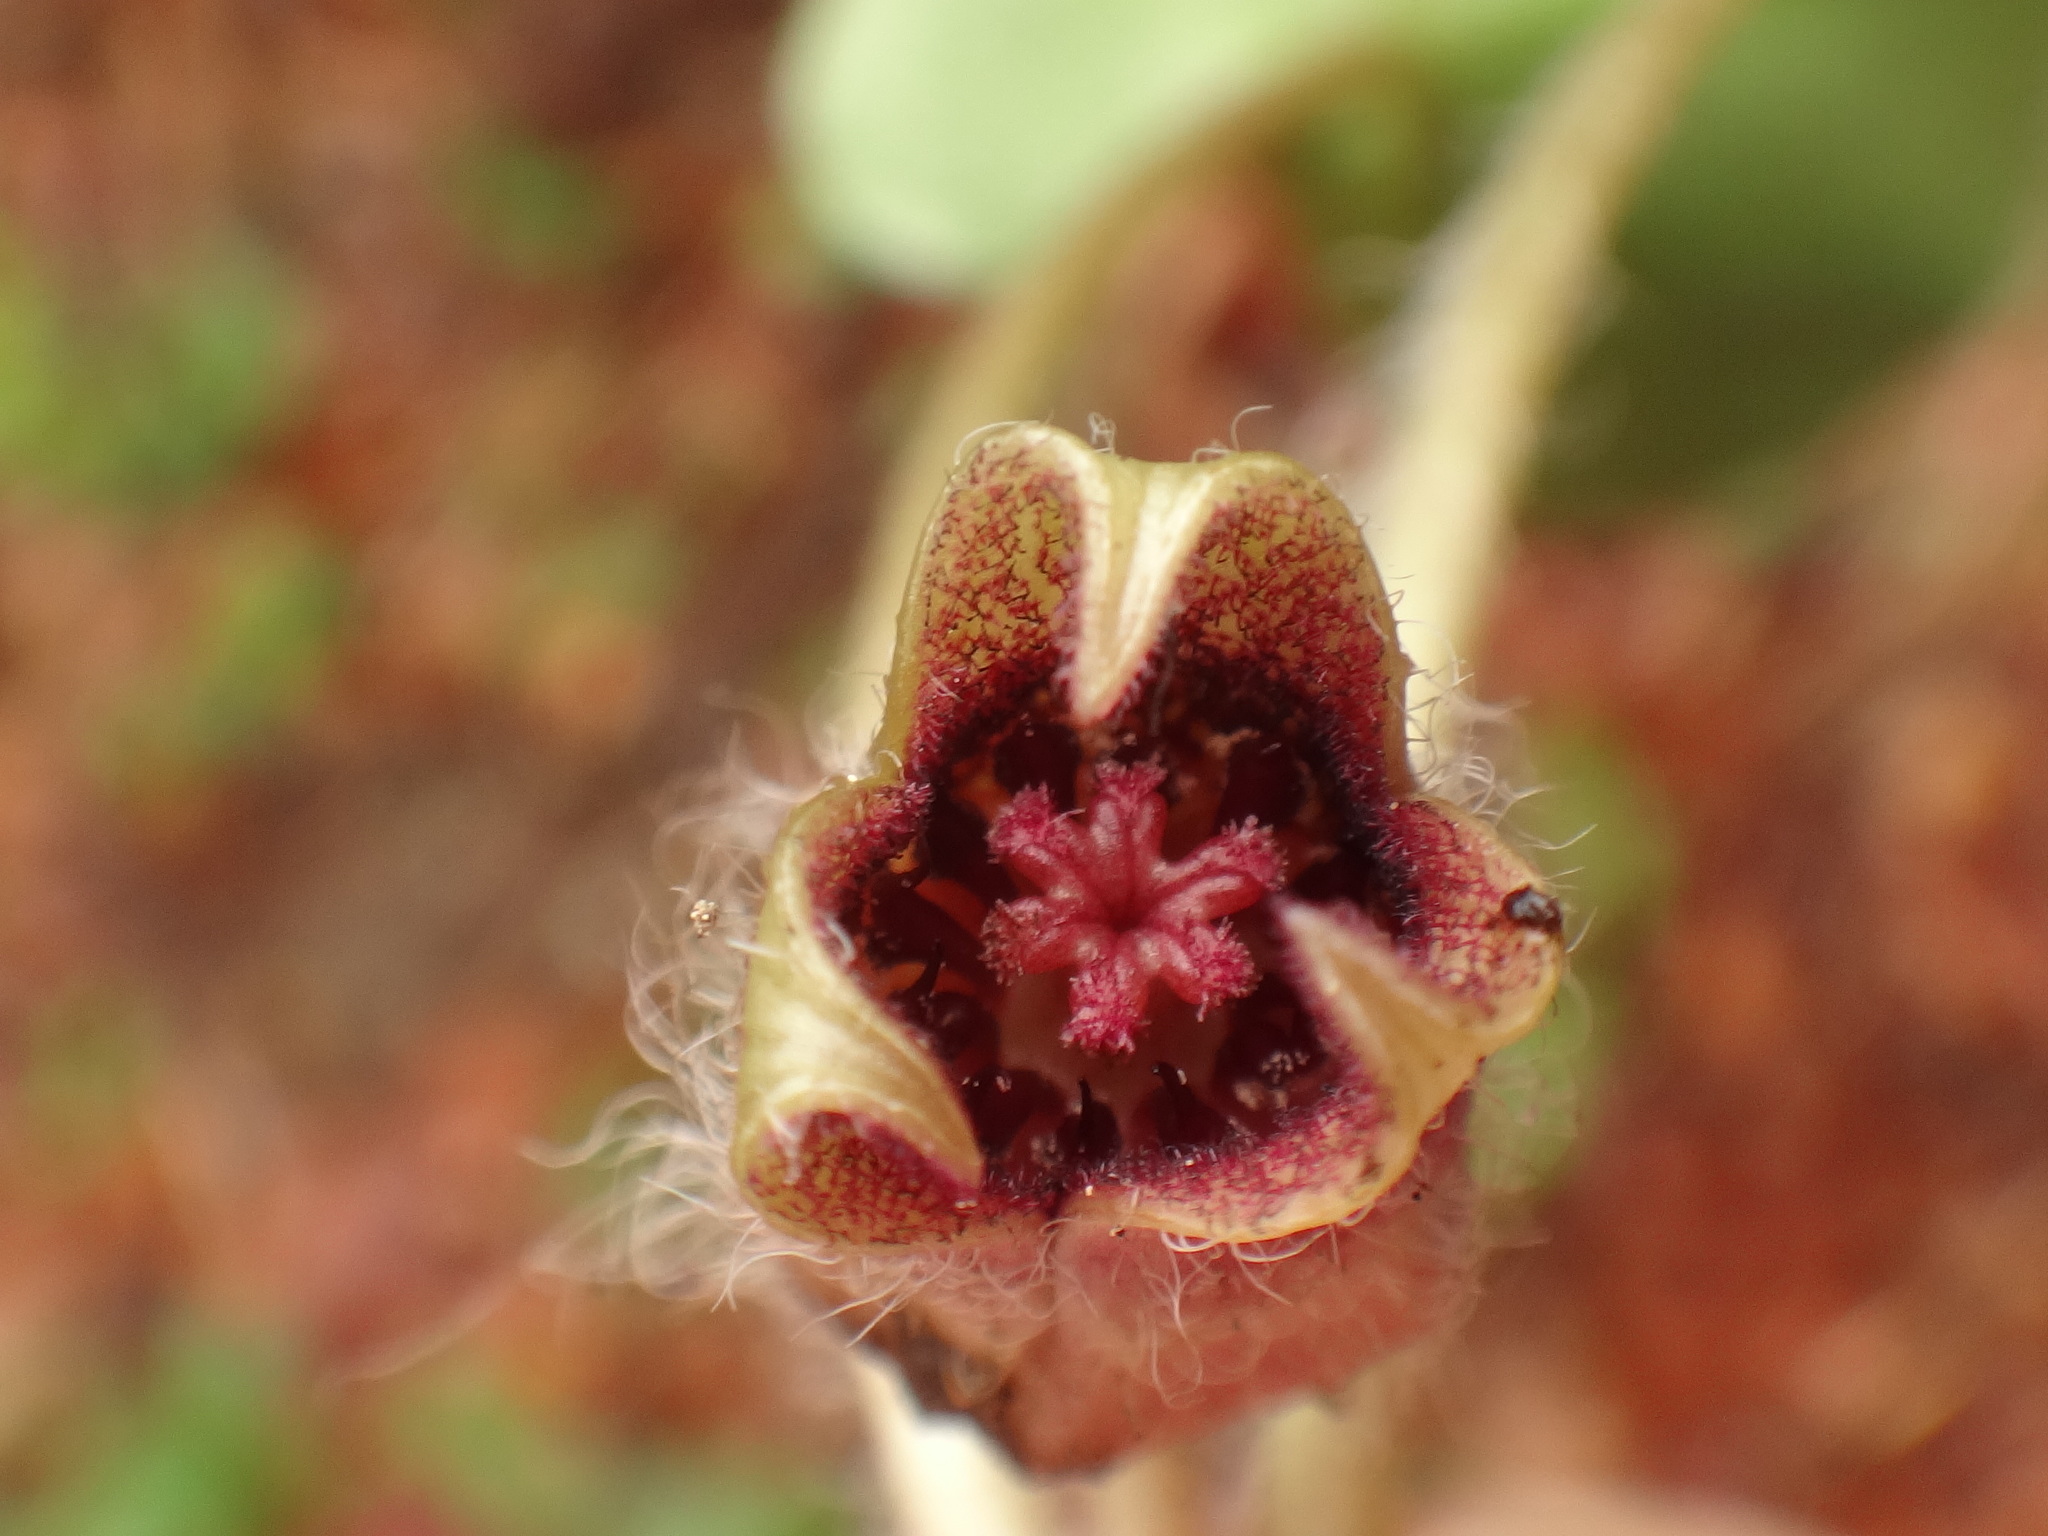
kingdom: Plantae
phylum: Tracheophyta
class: Magnoliopsida
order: Piperales
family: Aristolochiaceae
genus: Asarum
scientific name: Asarum europaeum
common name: Asarabacca
